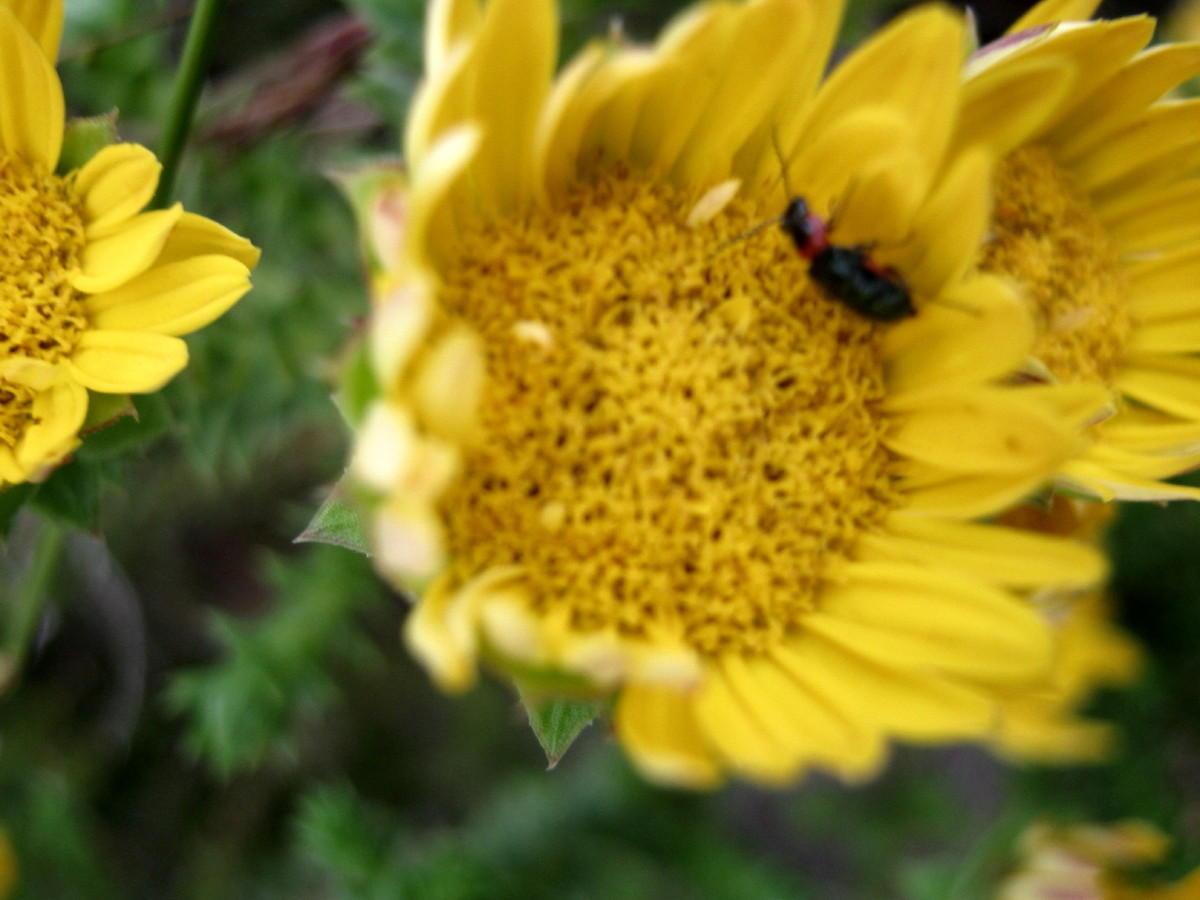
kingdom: Plantae
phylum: Tracheophyta
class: Magnoliopsida
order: Asterales
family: Asteraceae
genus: Oedera
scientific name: Oedera imbricata
